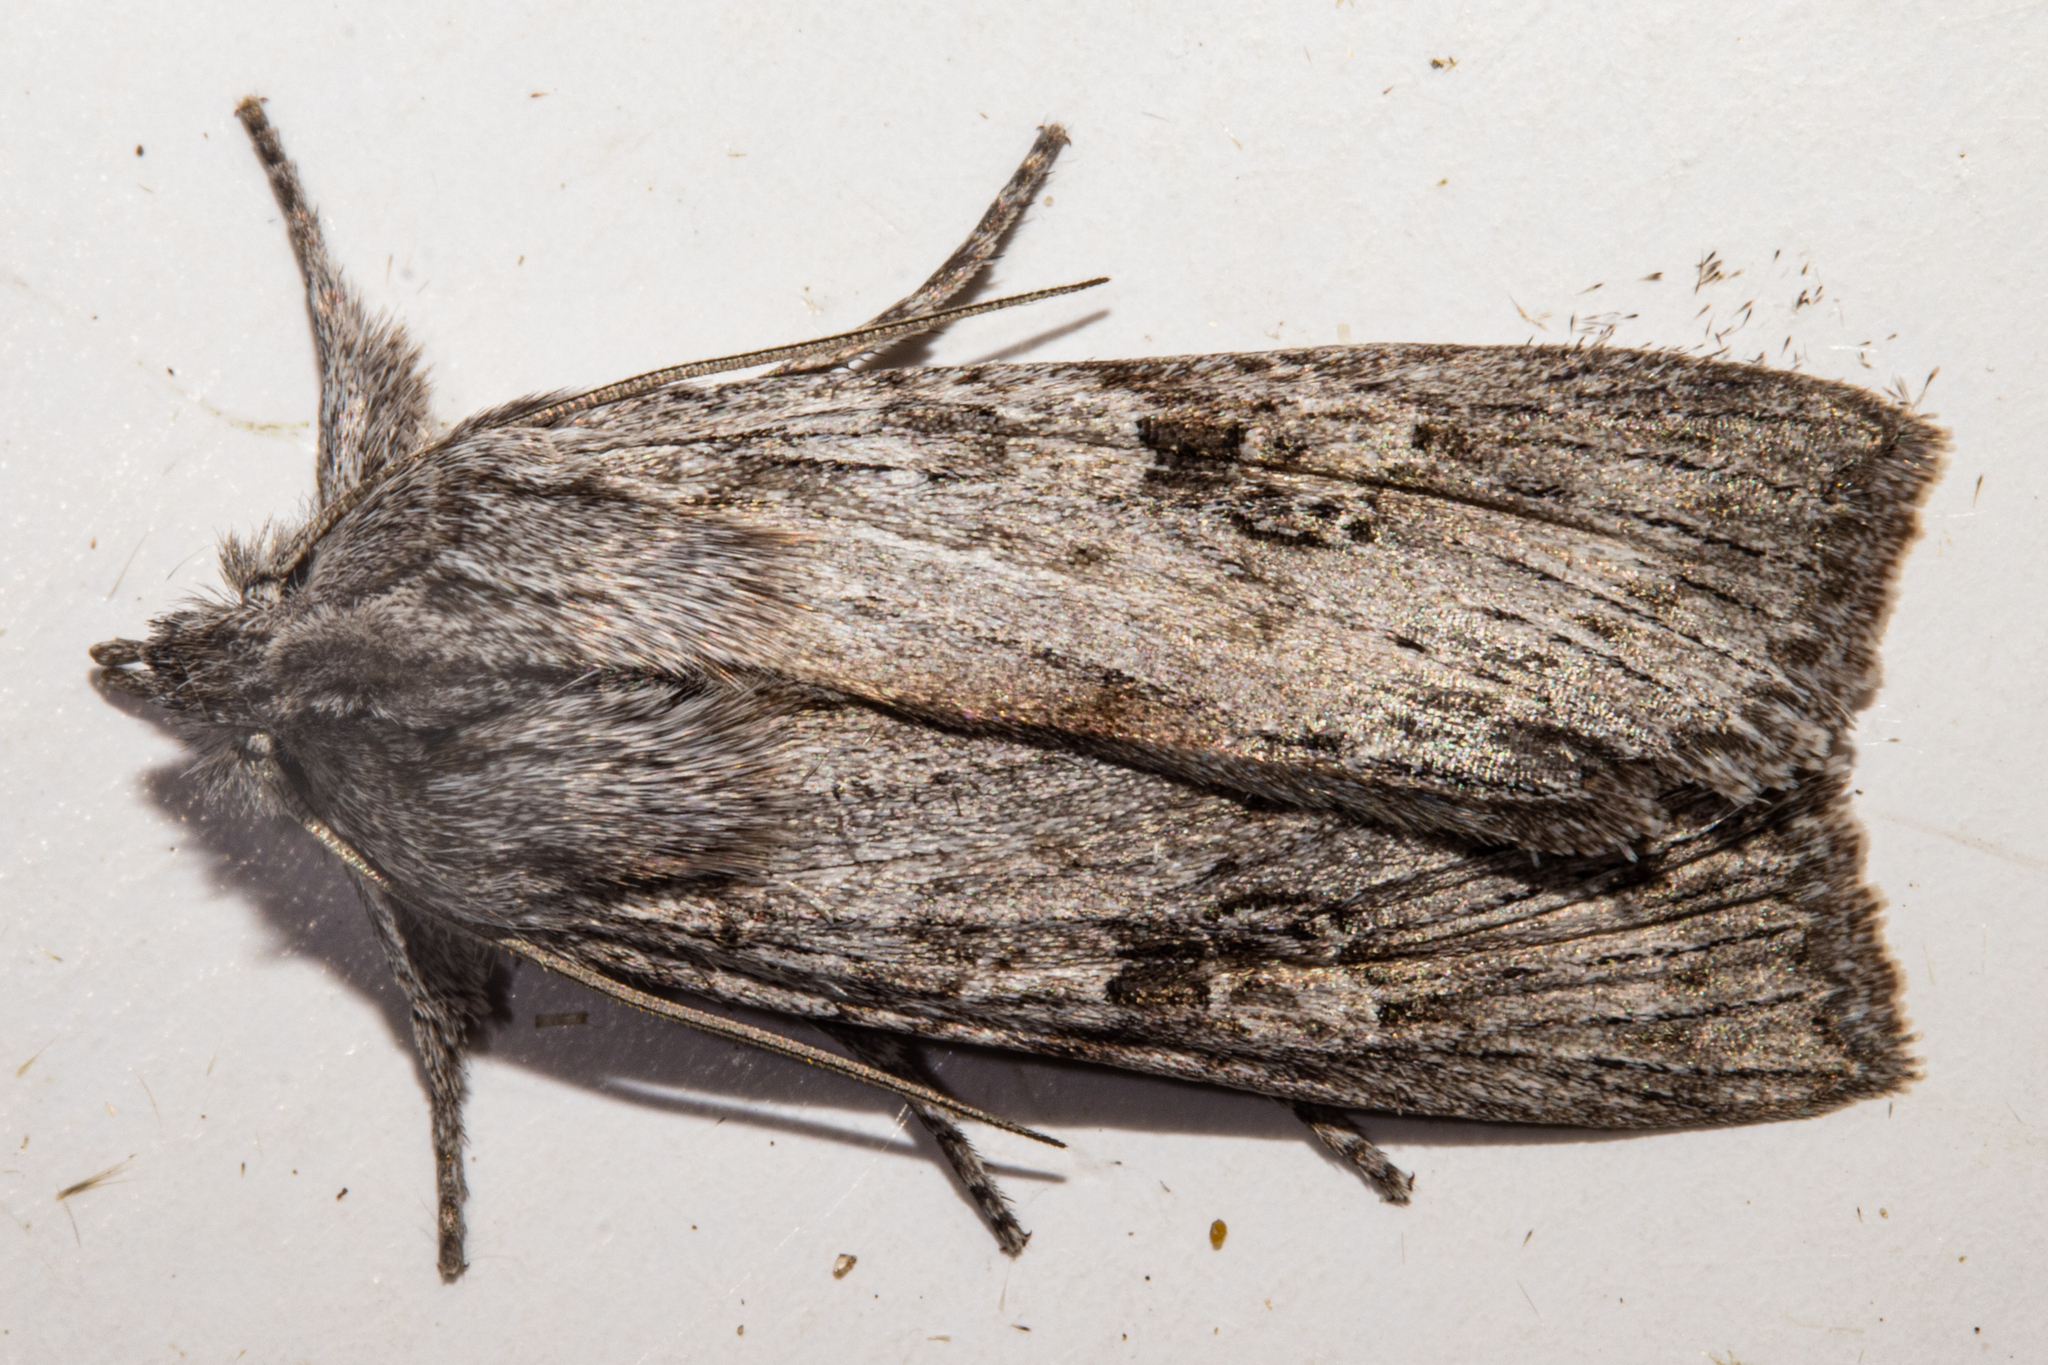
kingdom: Animalia
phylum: Arthropoda
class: Insecta
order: Lepidoptera
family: Noctuidae
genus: Physetica
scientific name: Physetica phricias
